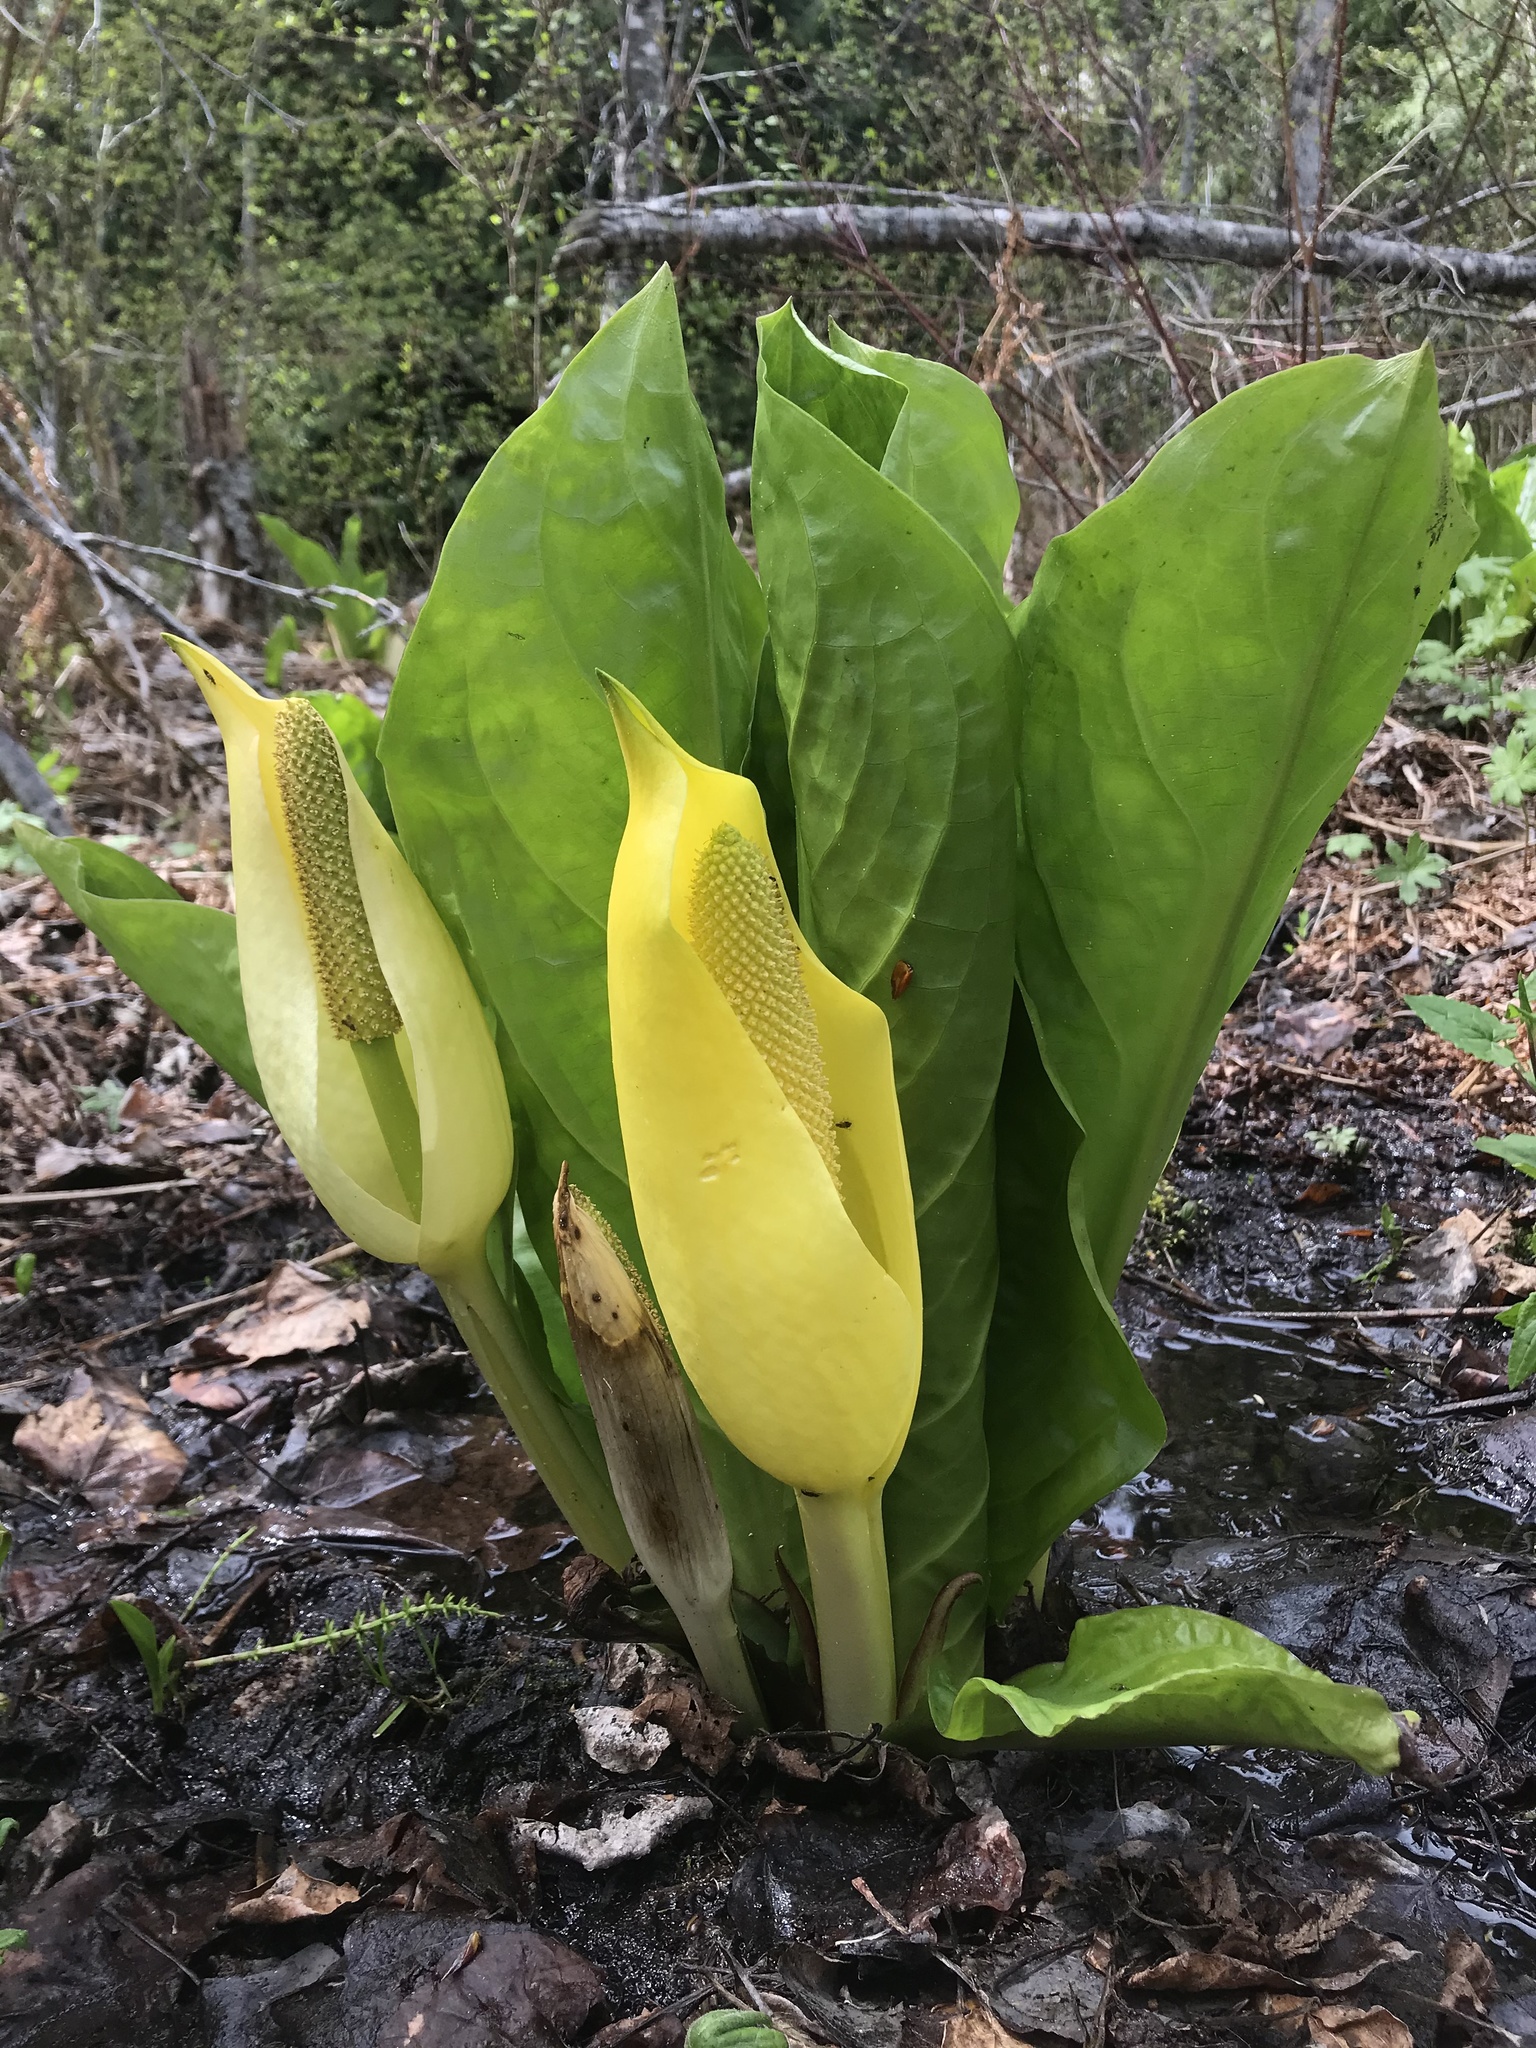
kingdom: Plantae
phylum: Tracheophyta
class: Liliopsida
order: Alismatales
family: Araceae
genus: Lysichiton
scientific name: Lysichiton americanus
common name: American skunk cabbage
